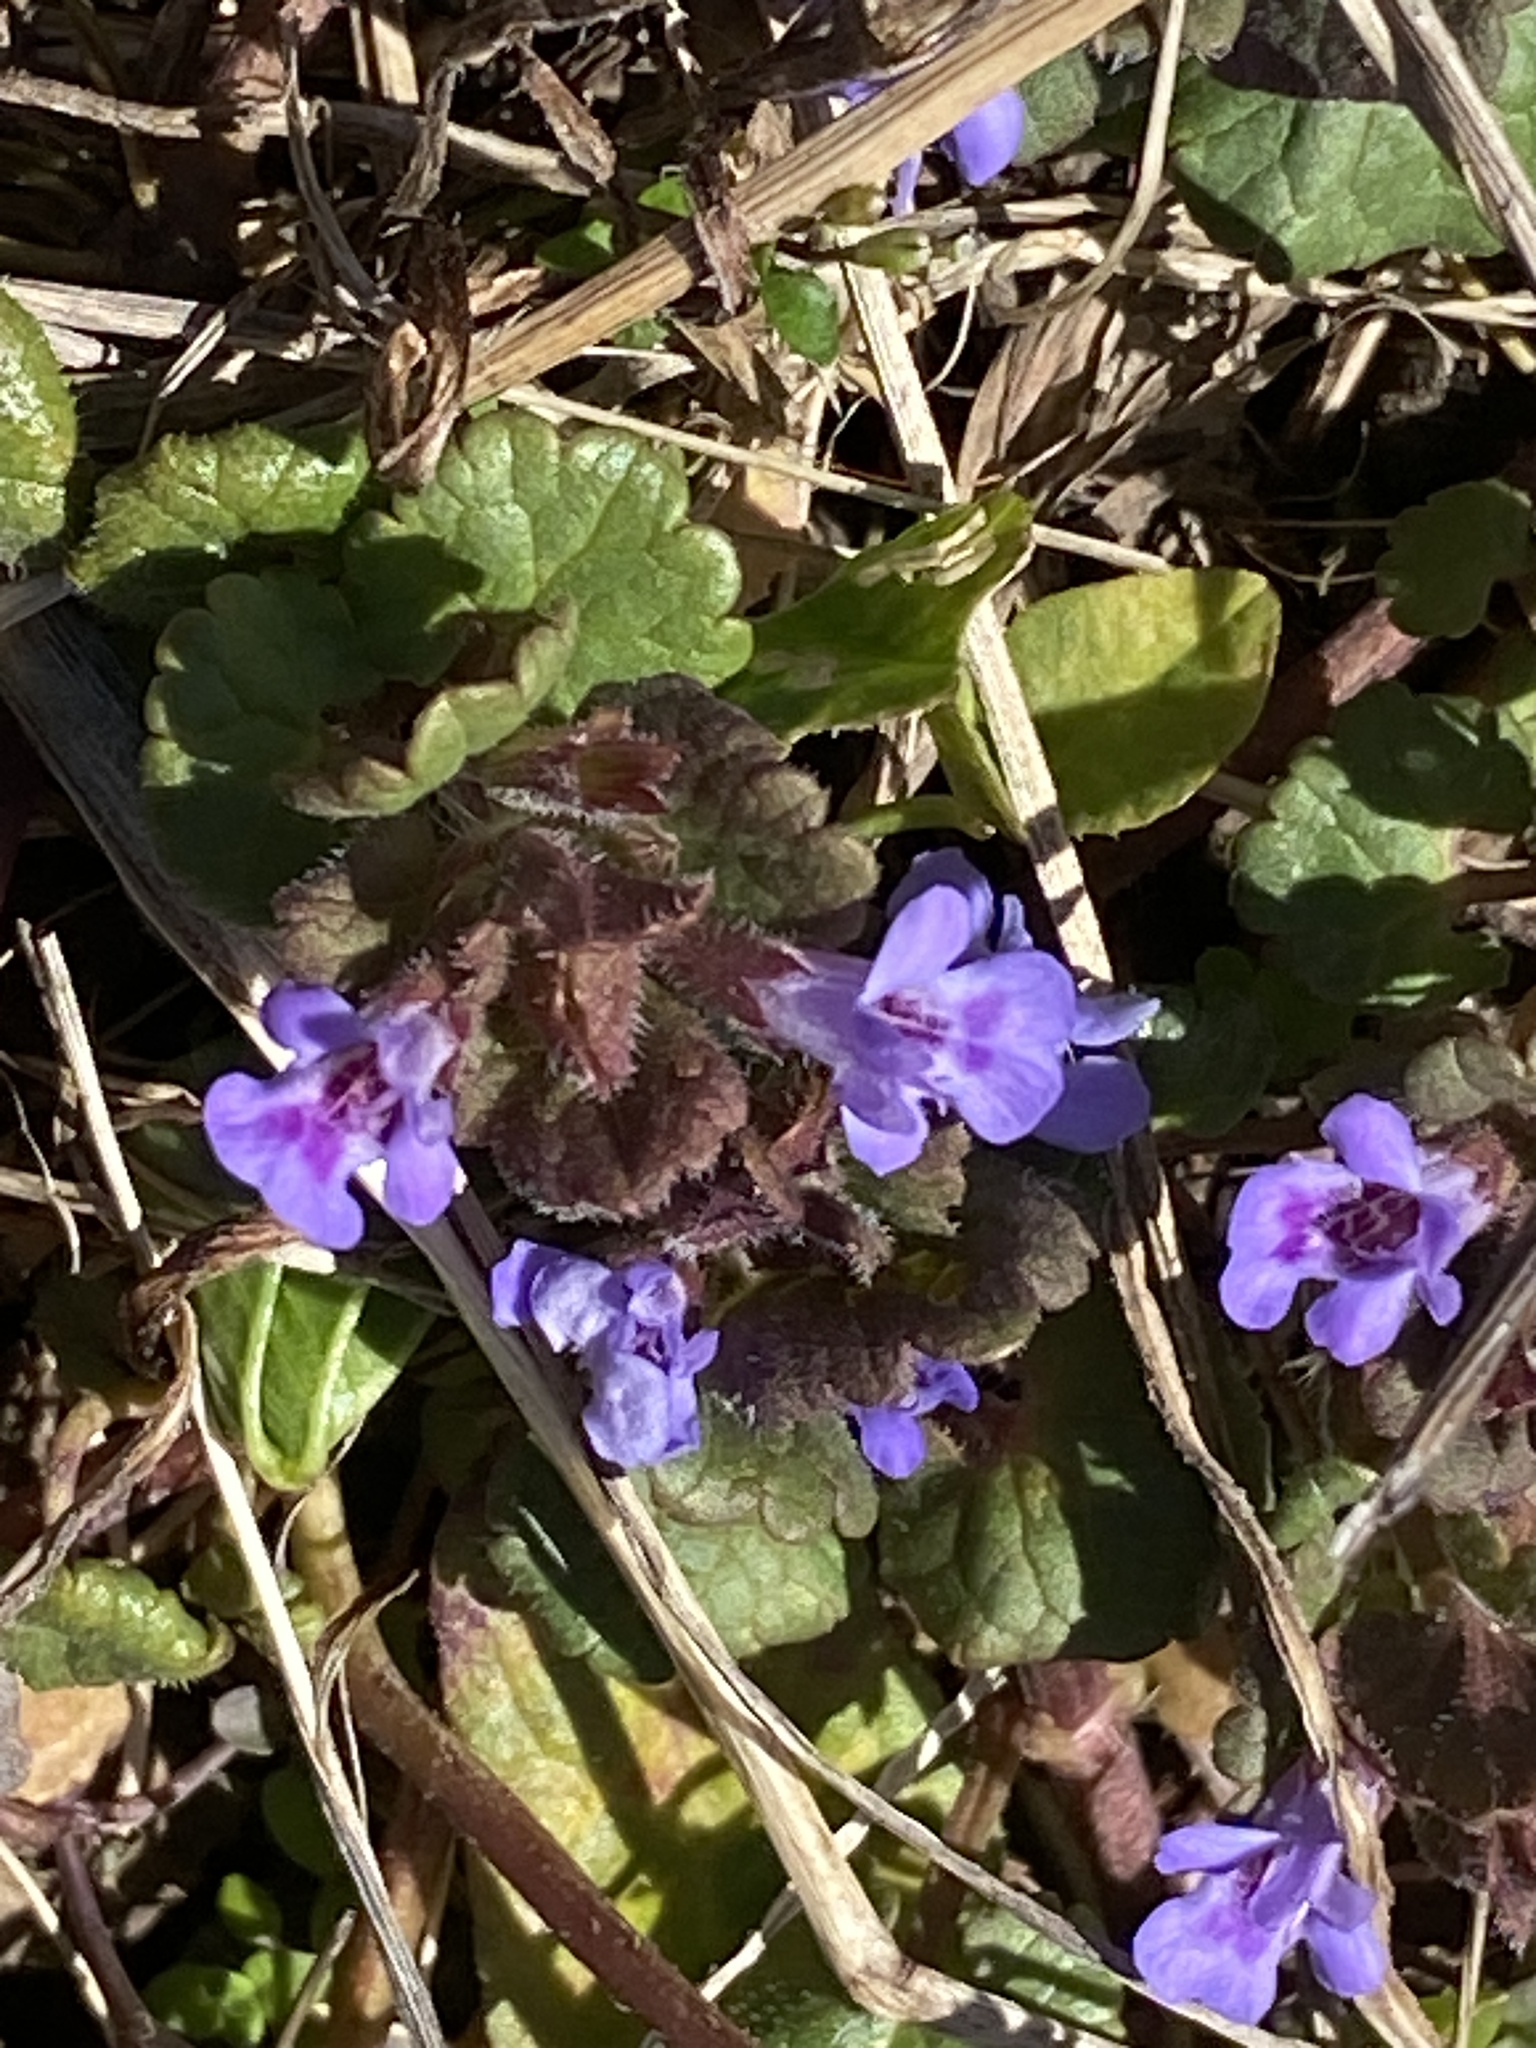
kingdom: Plantae
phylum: Tracheophyta
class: Magnoliopsida
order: Lamiales
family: Lamiaceae
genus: Glechoma
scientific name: Glechoma hederacea
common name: Ground ivy
